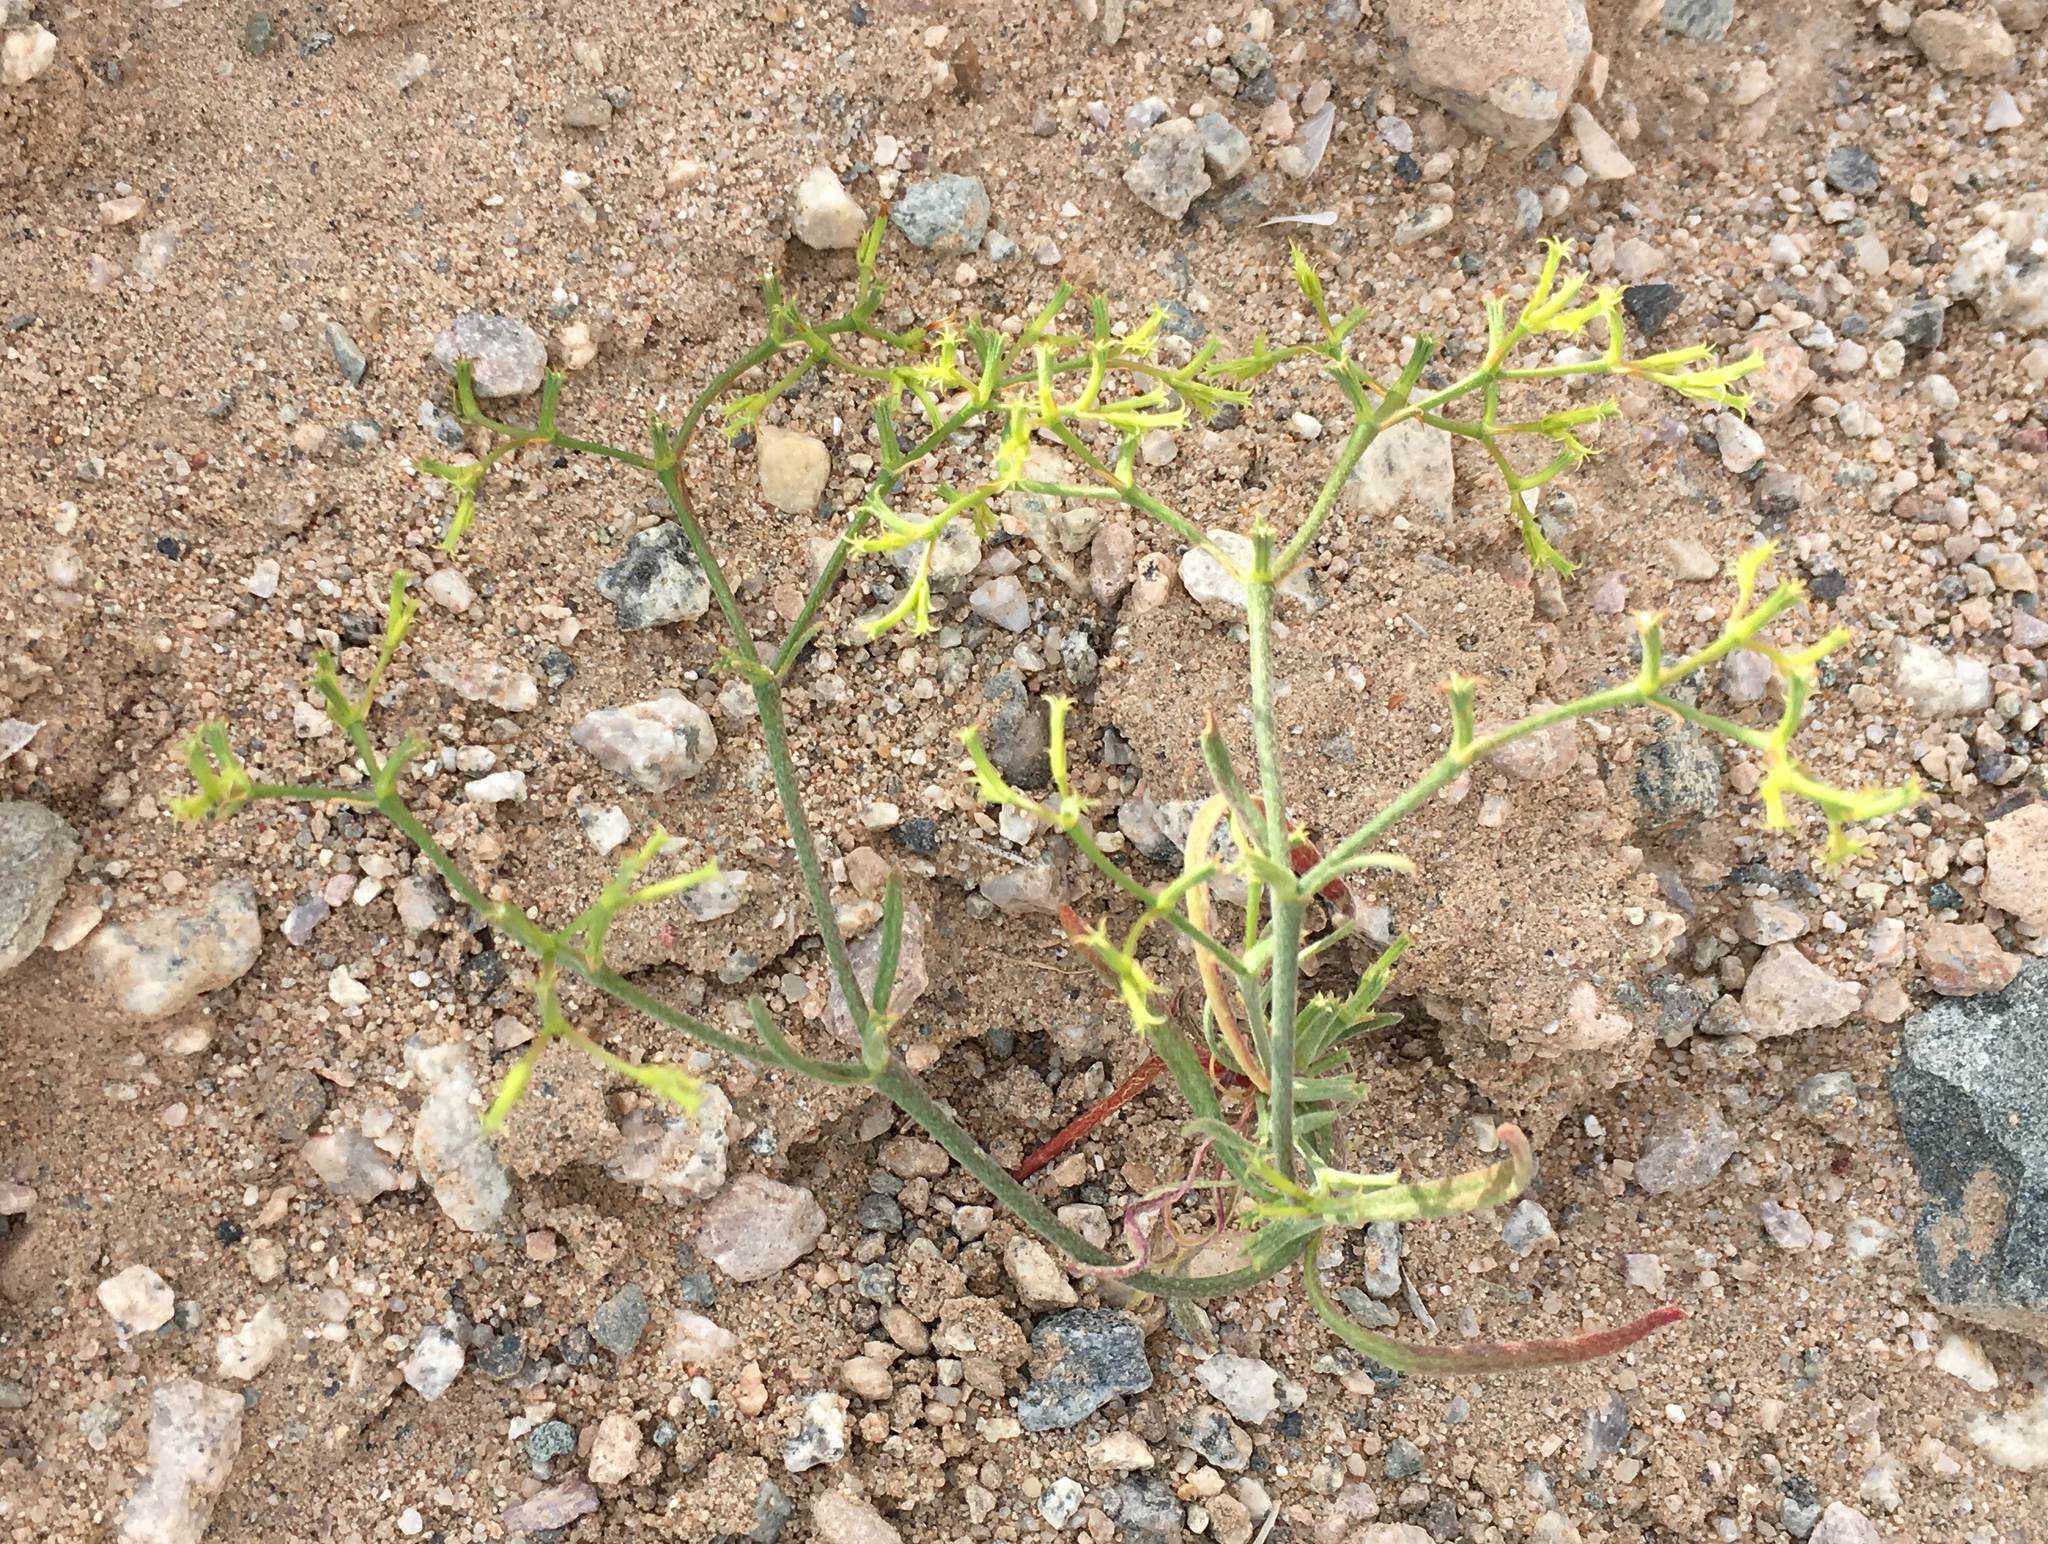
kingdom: Plantae
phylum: Tracheophyta
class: Magnoliopsida
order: Caryophyllales
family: Polygonaceae
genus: Chorizanthe
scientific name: Chorizanthe brevicornu
